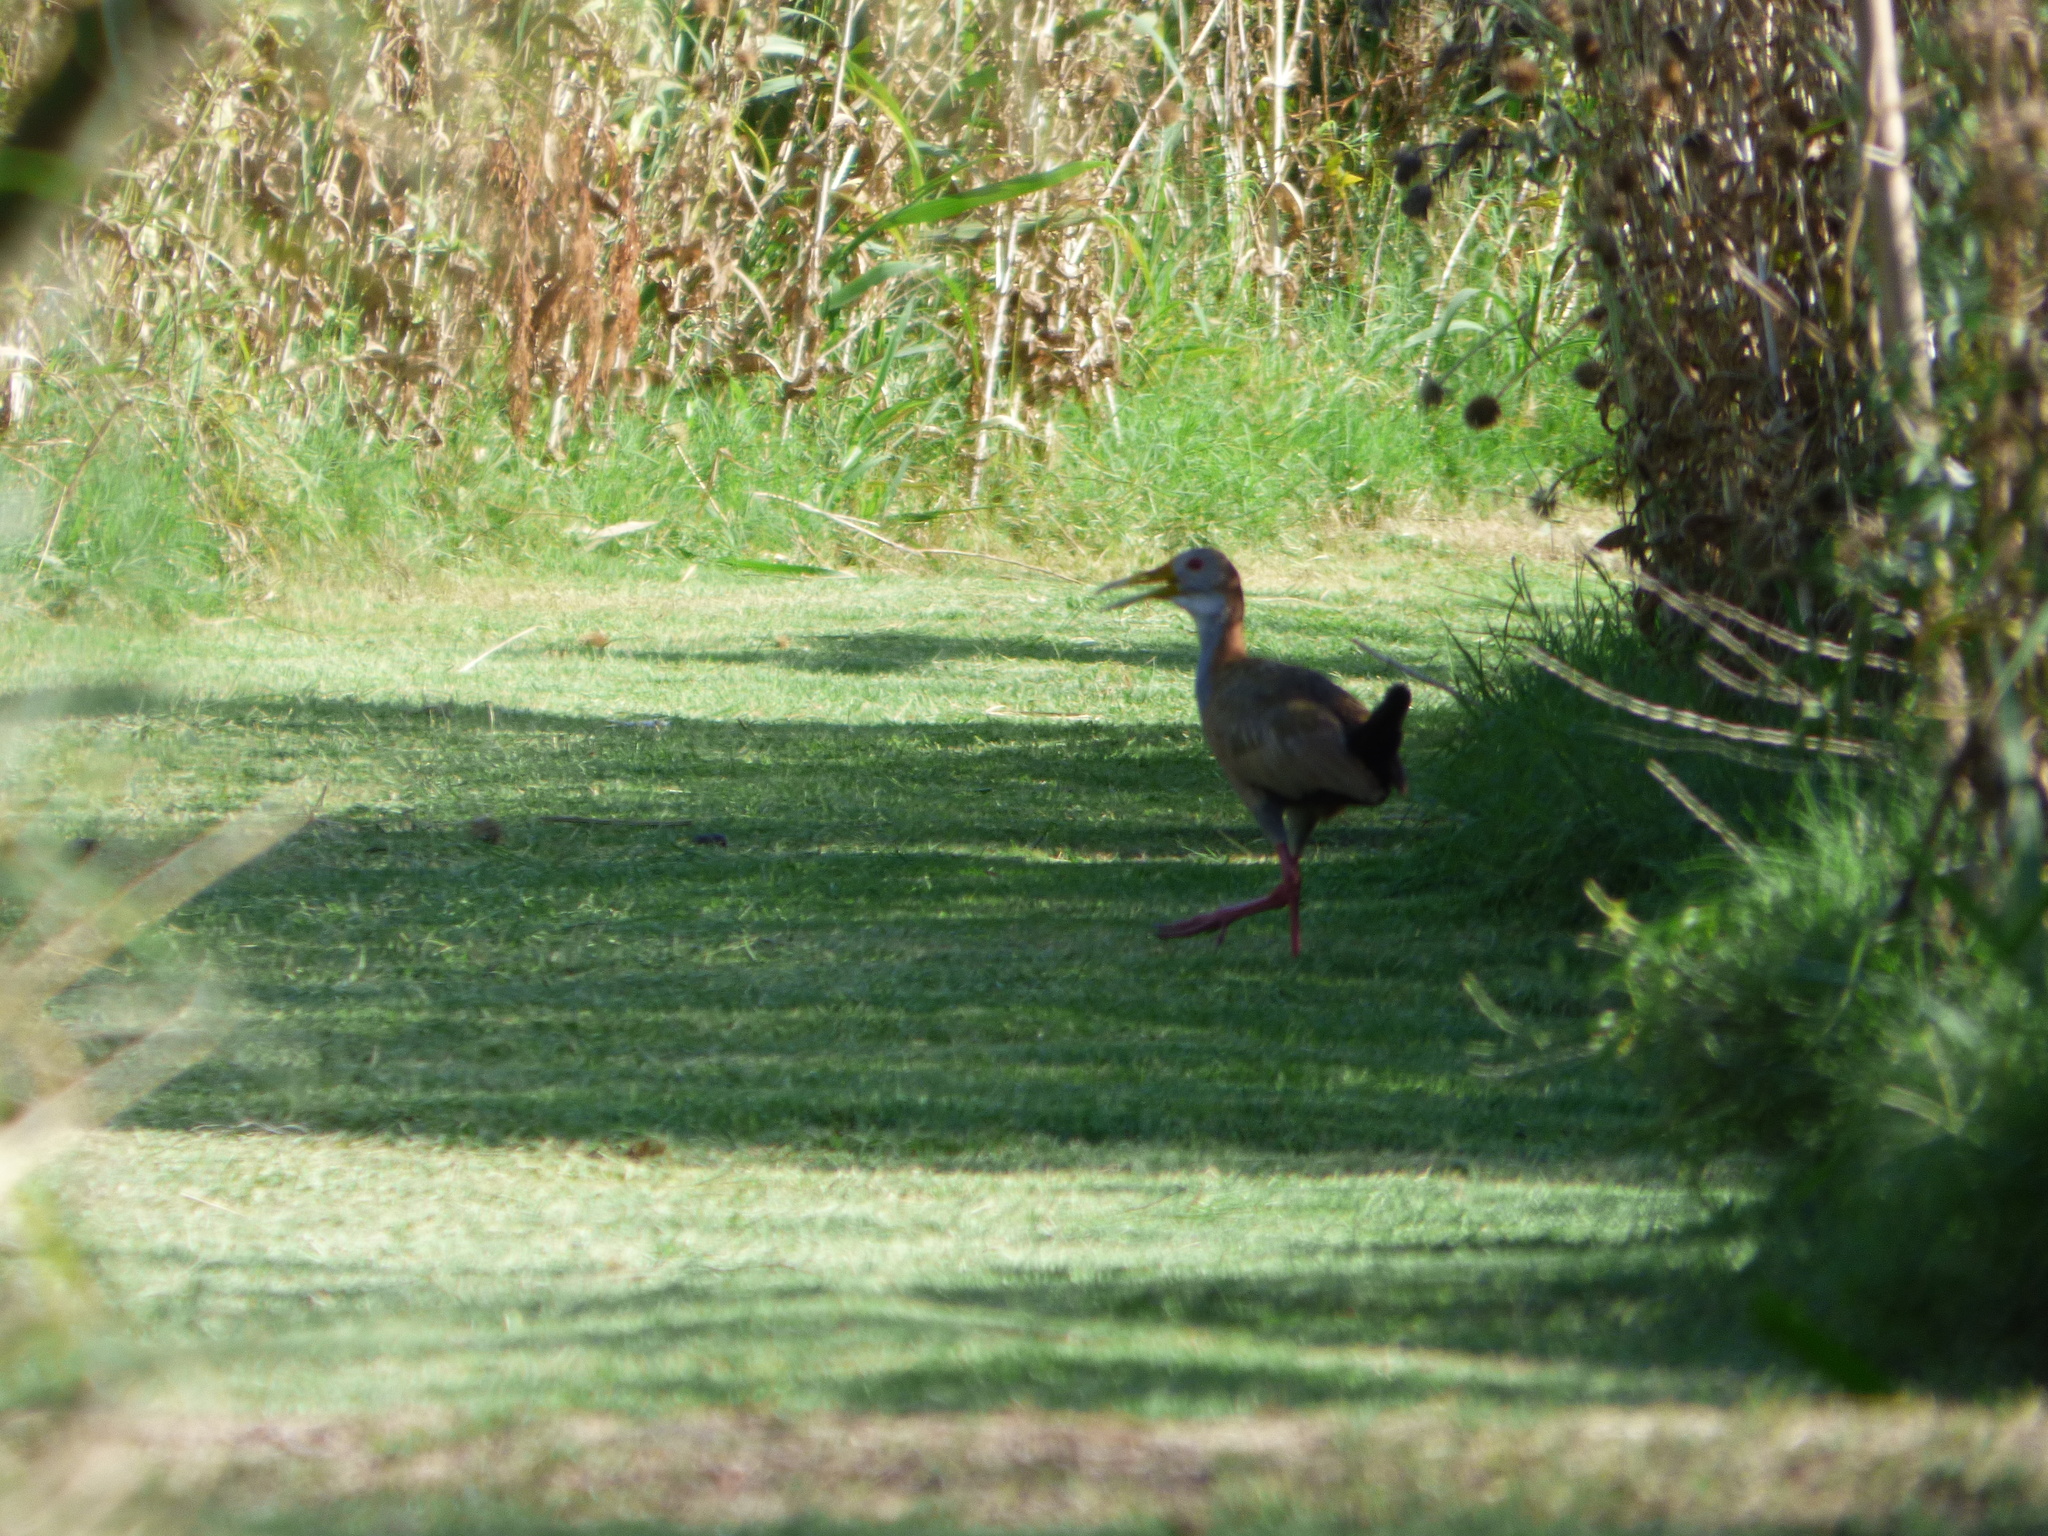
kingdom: Animalia
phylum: Chordata
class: Aves
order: Gruiformes
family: Rallidae
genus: Aramides
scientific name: Aramides ypecaha
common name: Giant wood rail
